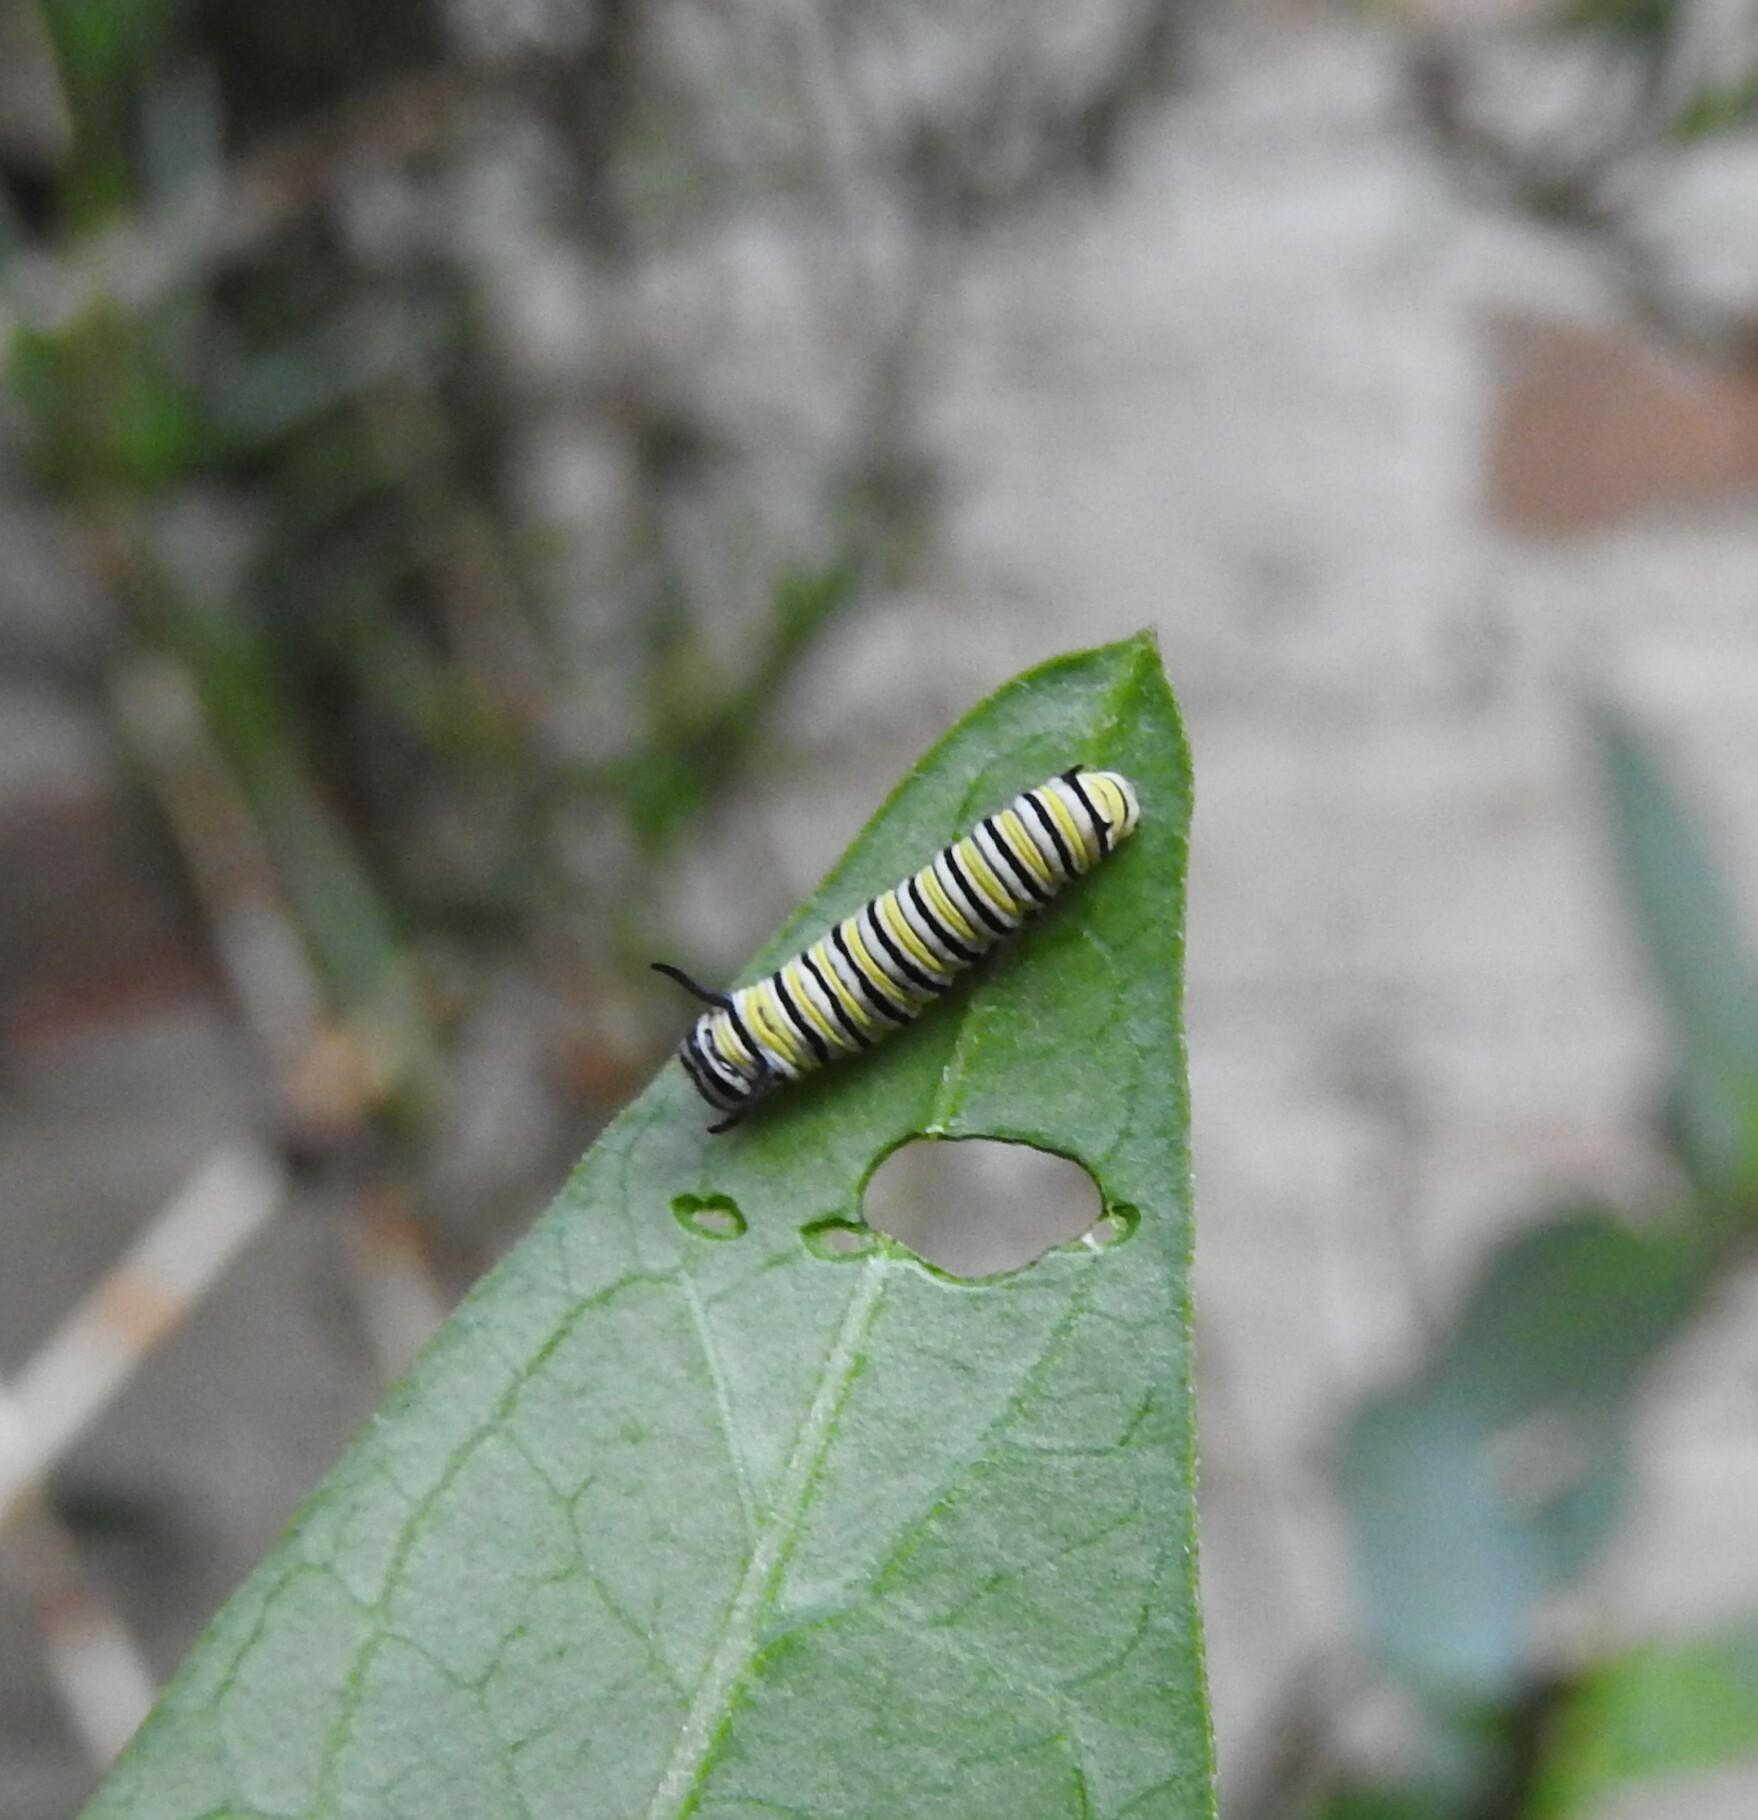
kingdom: Animalia
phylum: Arthropoda
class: Insecta
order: Lepidoptera
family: Nymphalidae
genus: Danaus
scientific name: Danaus plexippus
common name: Monarch
